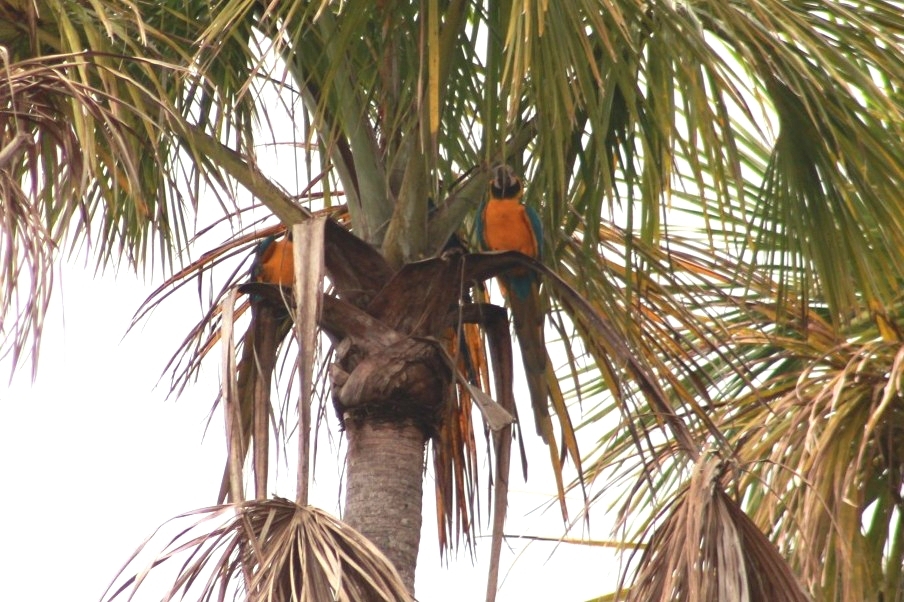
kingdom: Animalia
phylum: Chordata
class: Aves
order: Psittaciformes
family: Psittacidae
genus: Ara
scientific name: Ara ararauna
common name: Blue-and-yellow macaw
